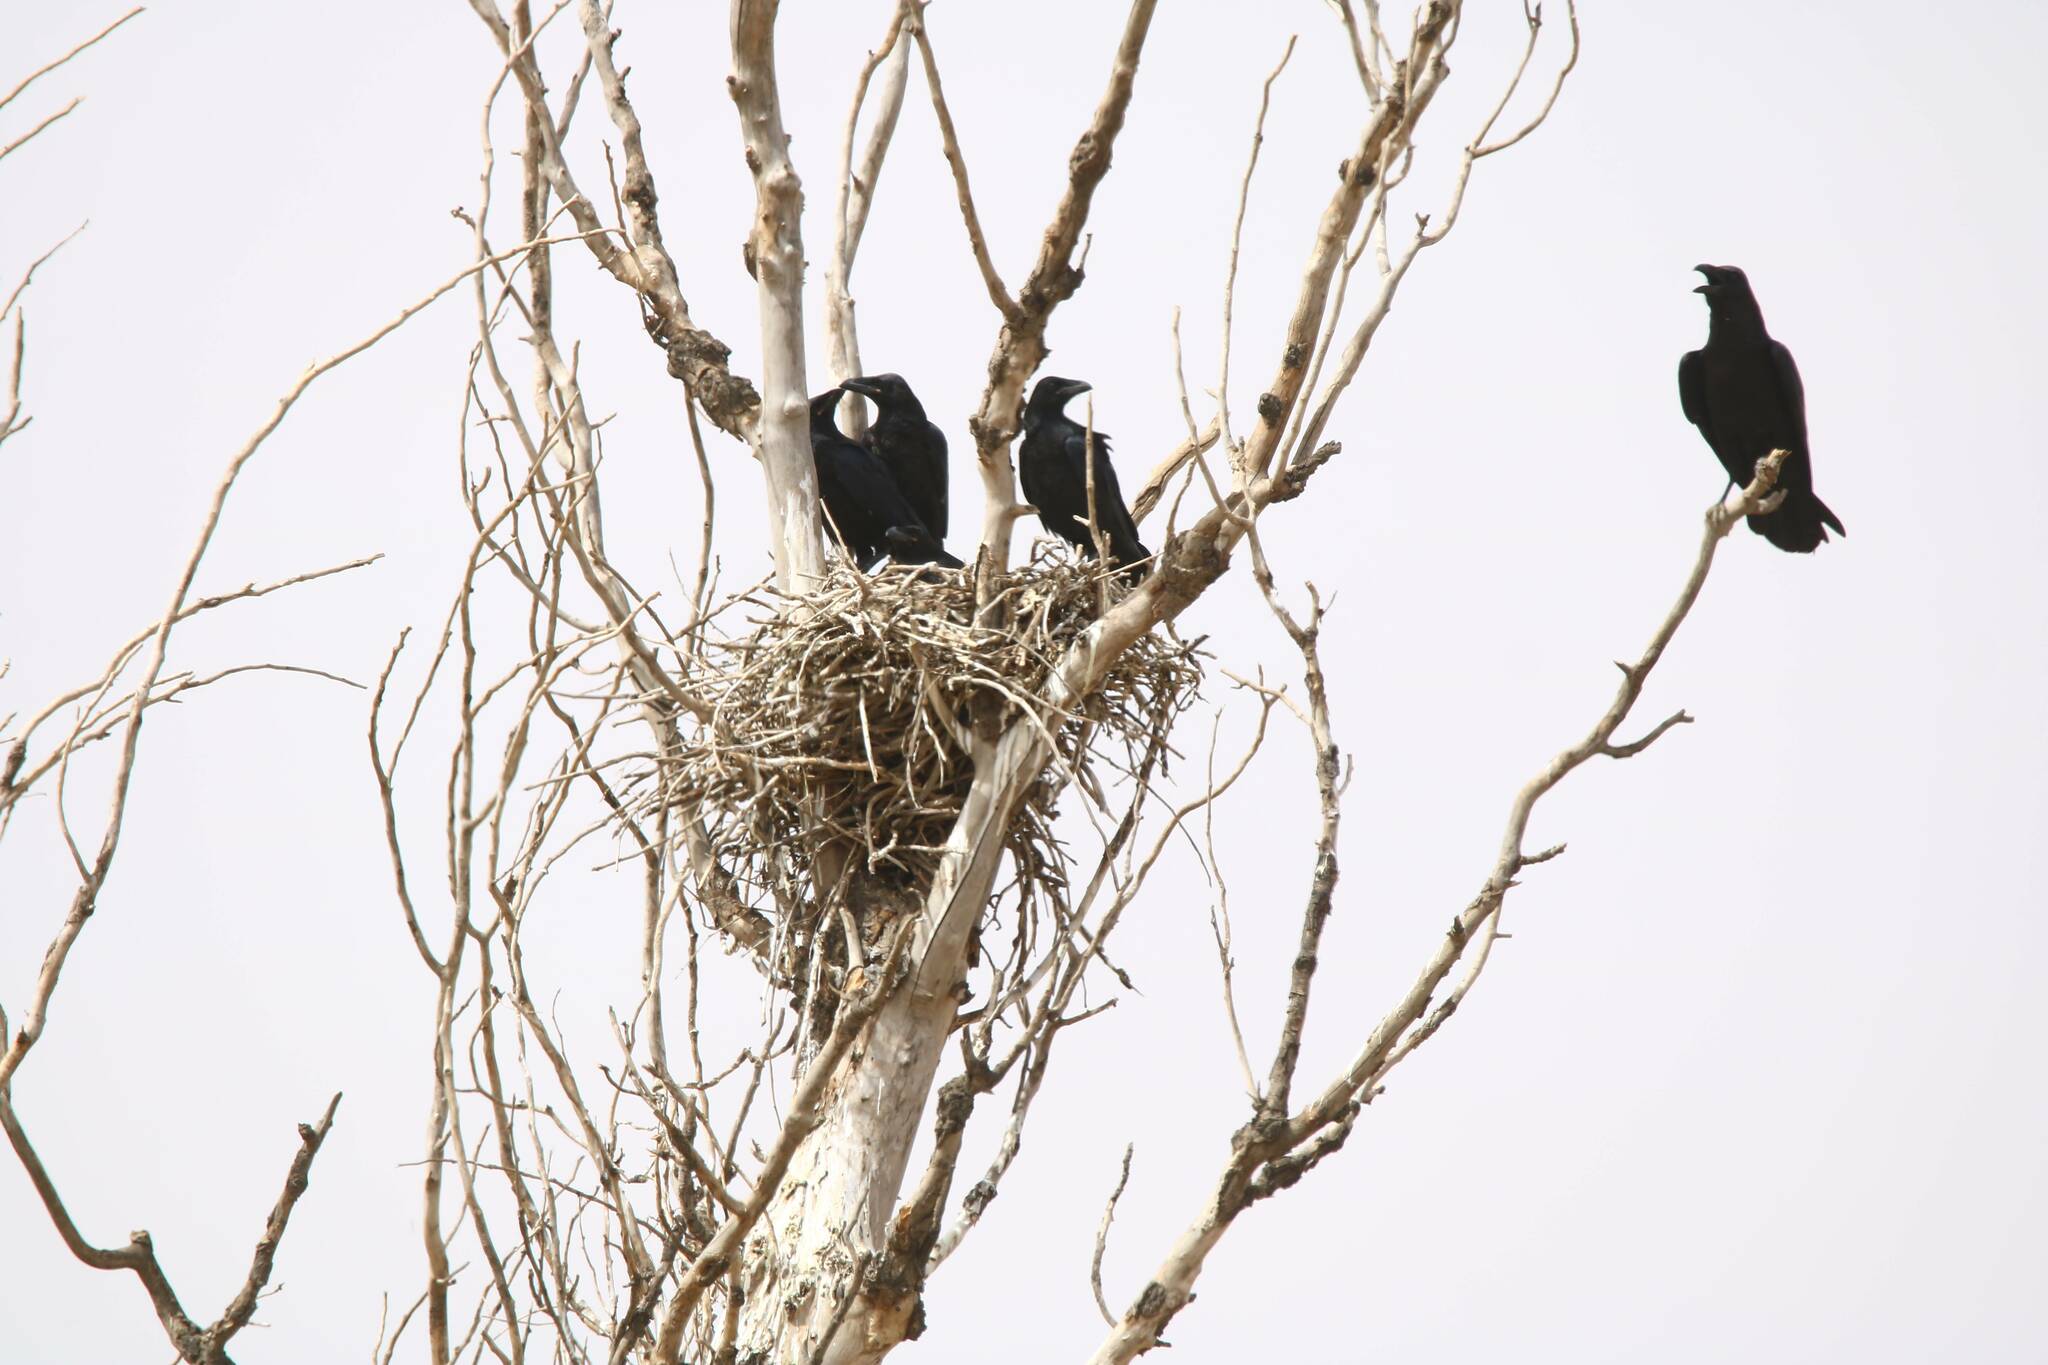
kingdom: Animalia
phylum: Chordata
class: Aves
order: Passeriformes
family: Corvidae
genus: Corvus
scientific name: Corvus corax
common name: Common raven
